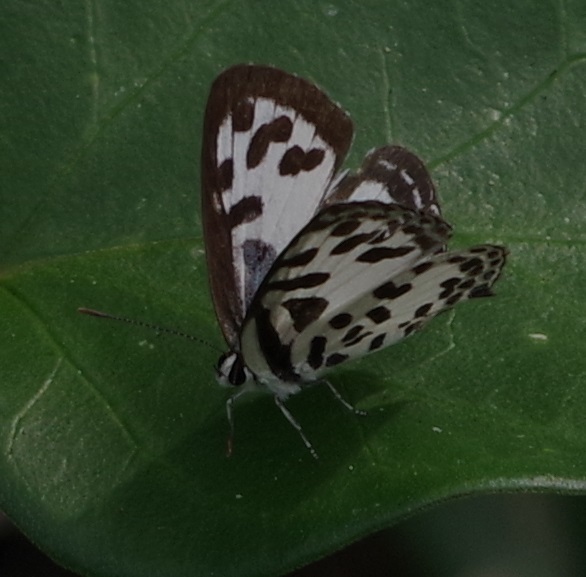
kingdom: Animalia
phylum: Arthropoda
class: Insecta
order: Lepidoptera
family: Lycaenidae
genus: Castalius
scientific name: Castalius rosimon
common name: Common pierrot
